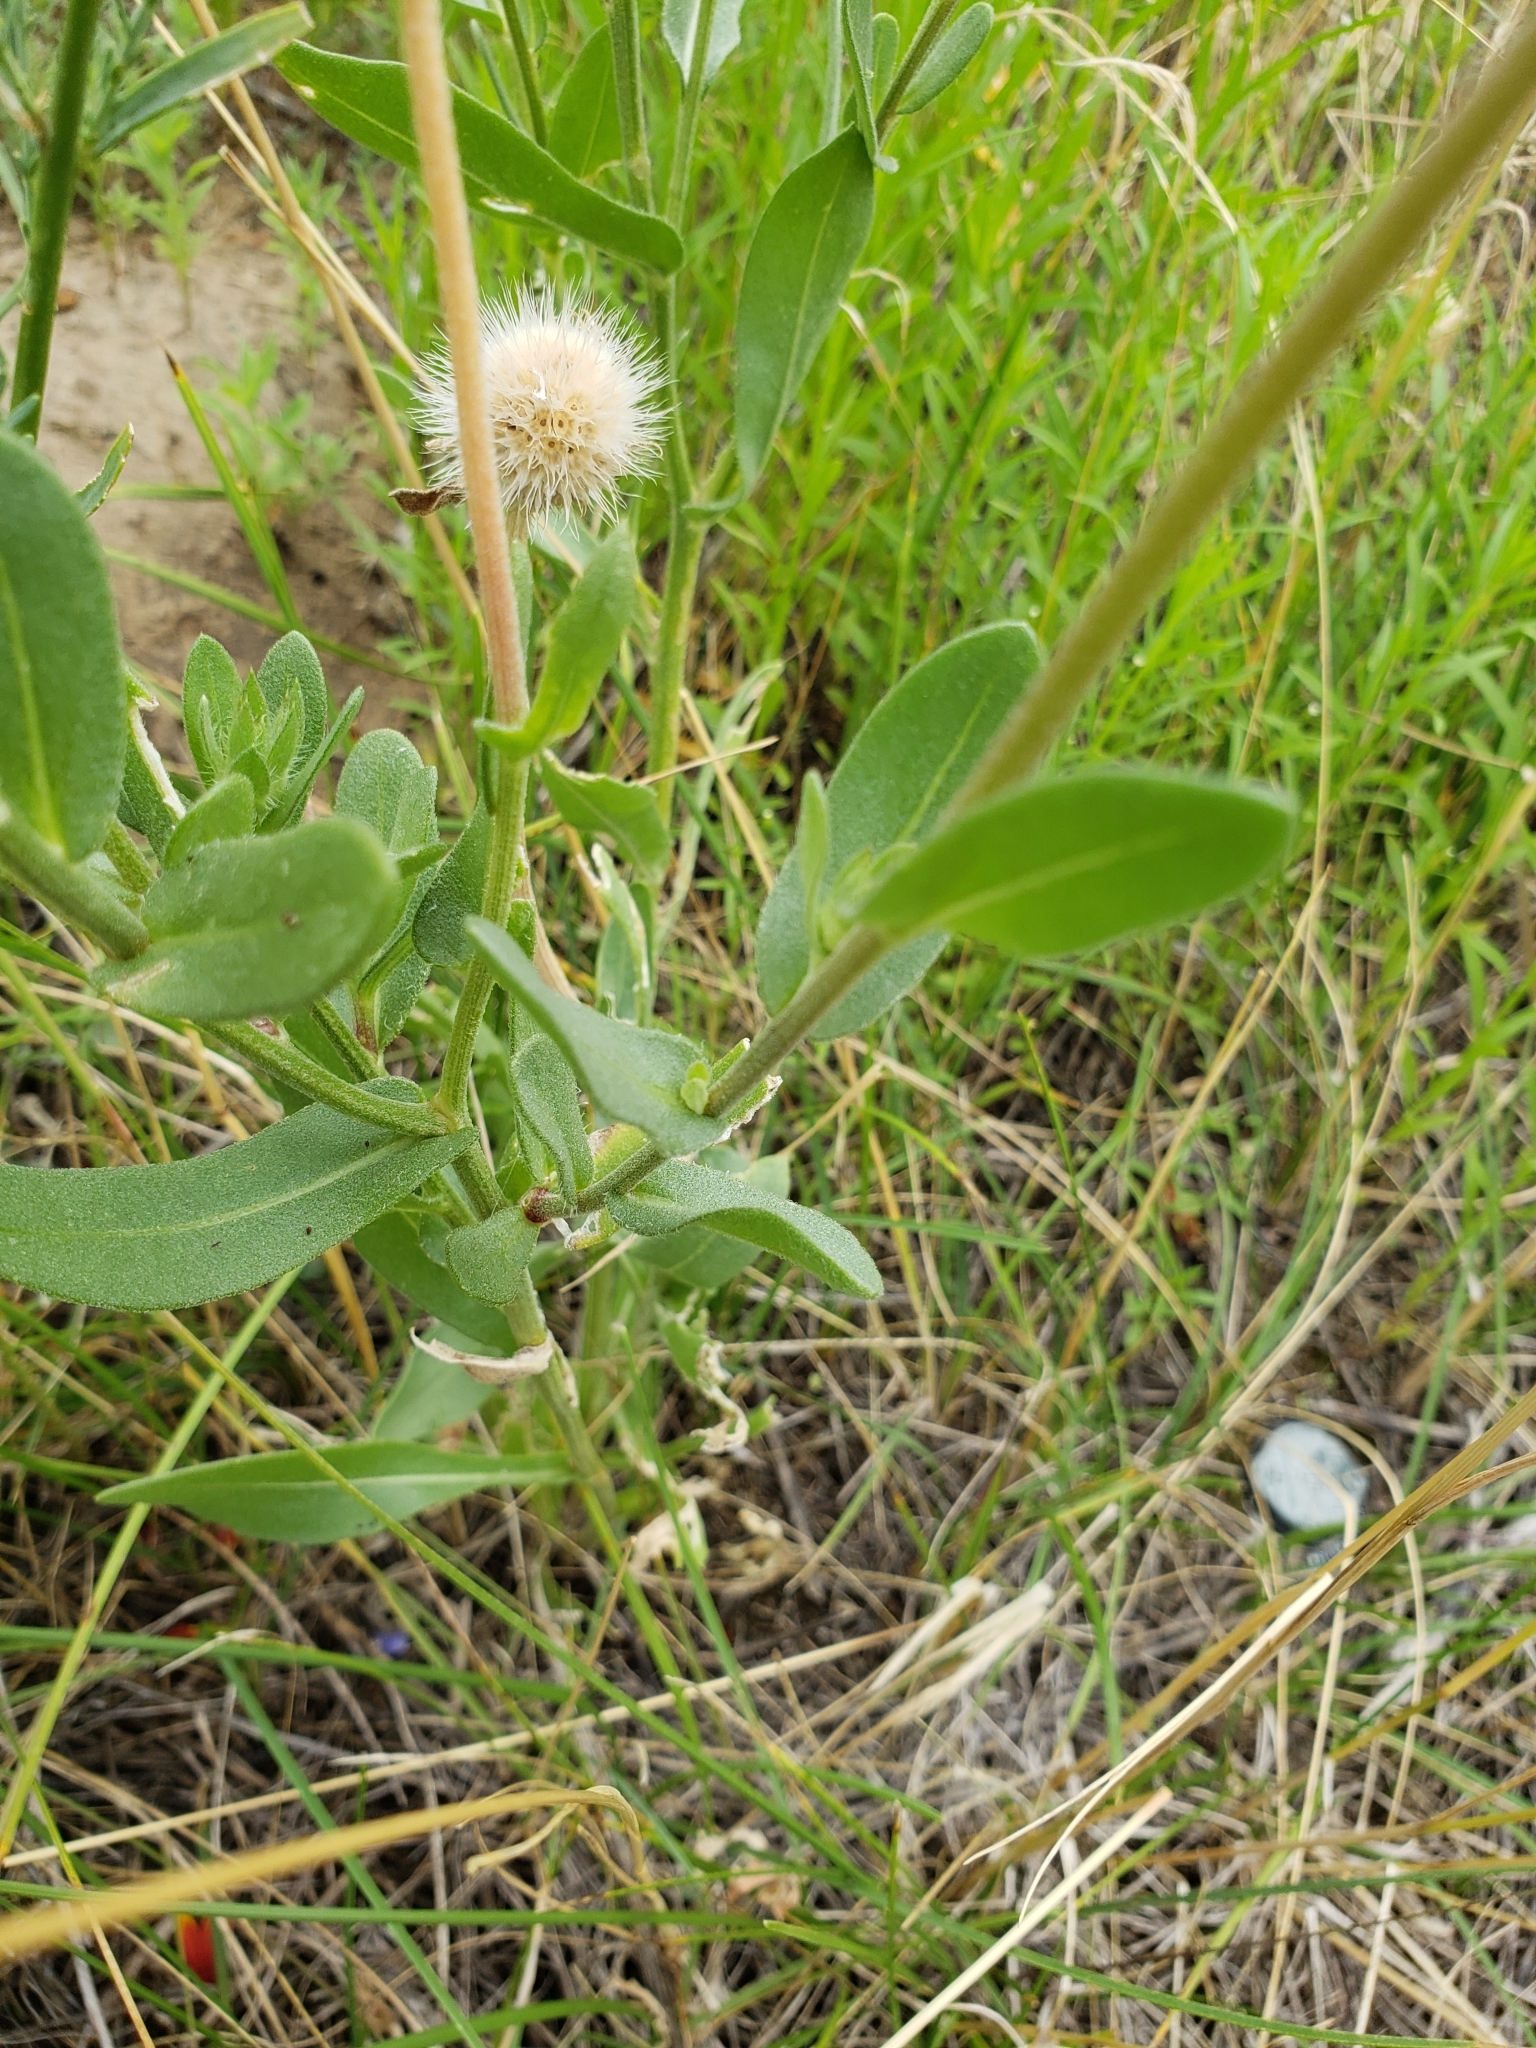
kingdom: Plantae
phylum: Tracheophyta
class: Magnoliopsida
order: Asterales
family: Asteraceae
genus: Gaillardia
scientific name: Gaillardia pulchella
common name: Firewheel
